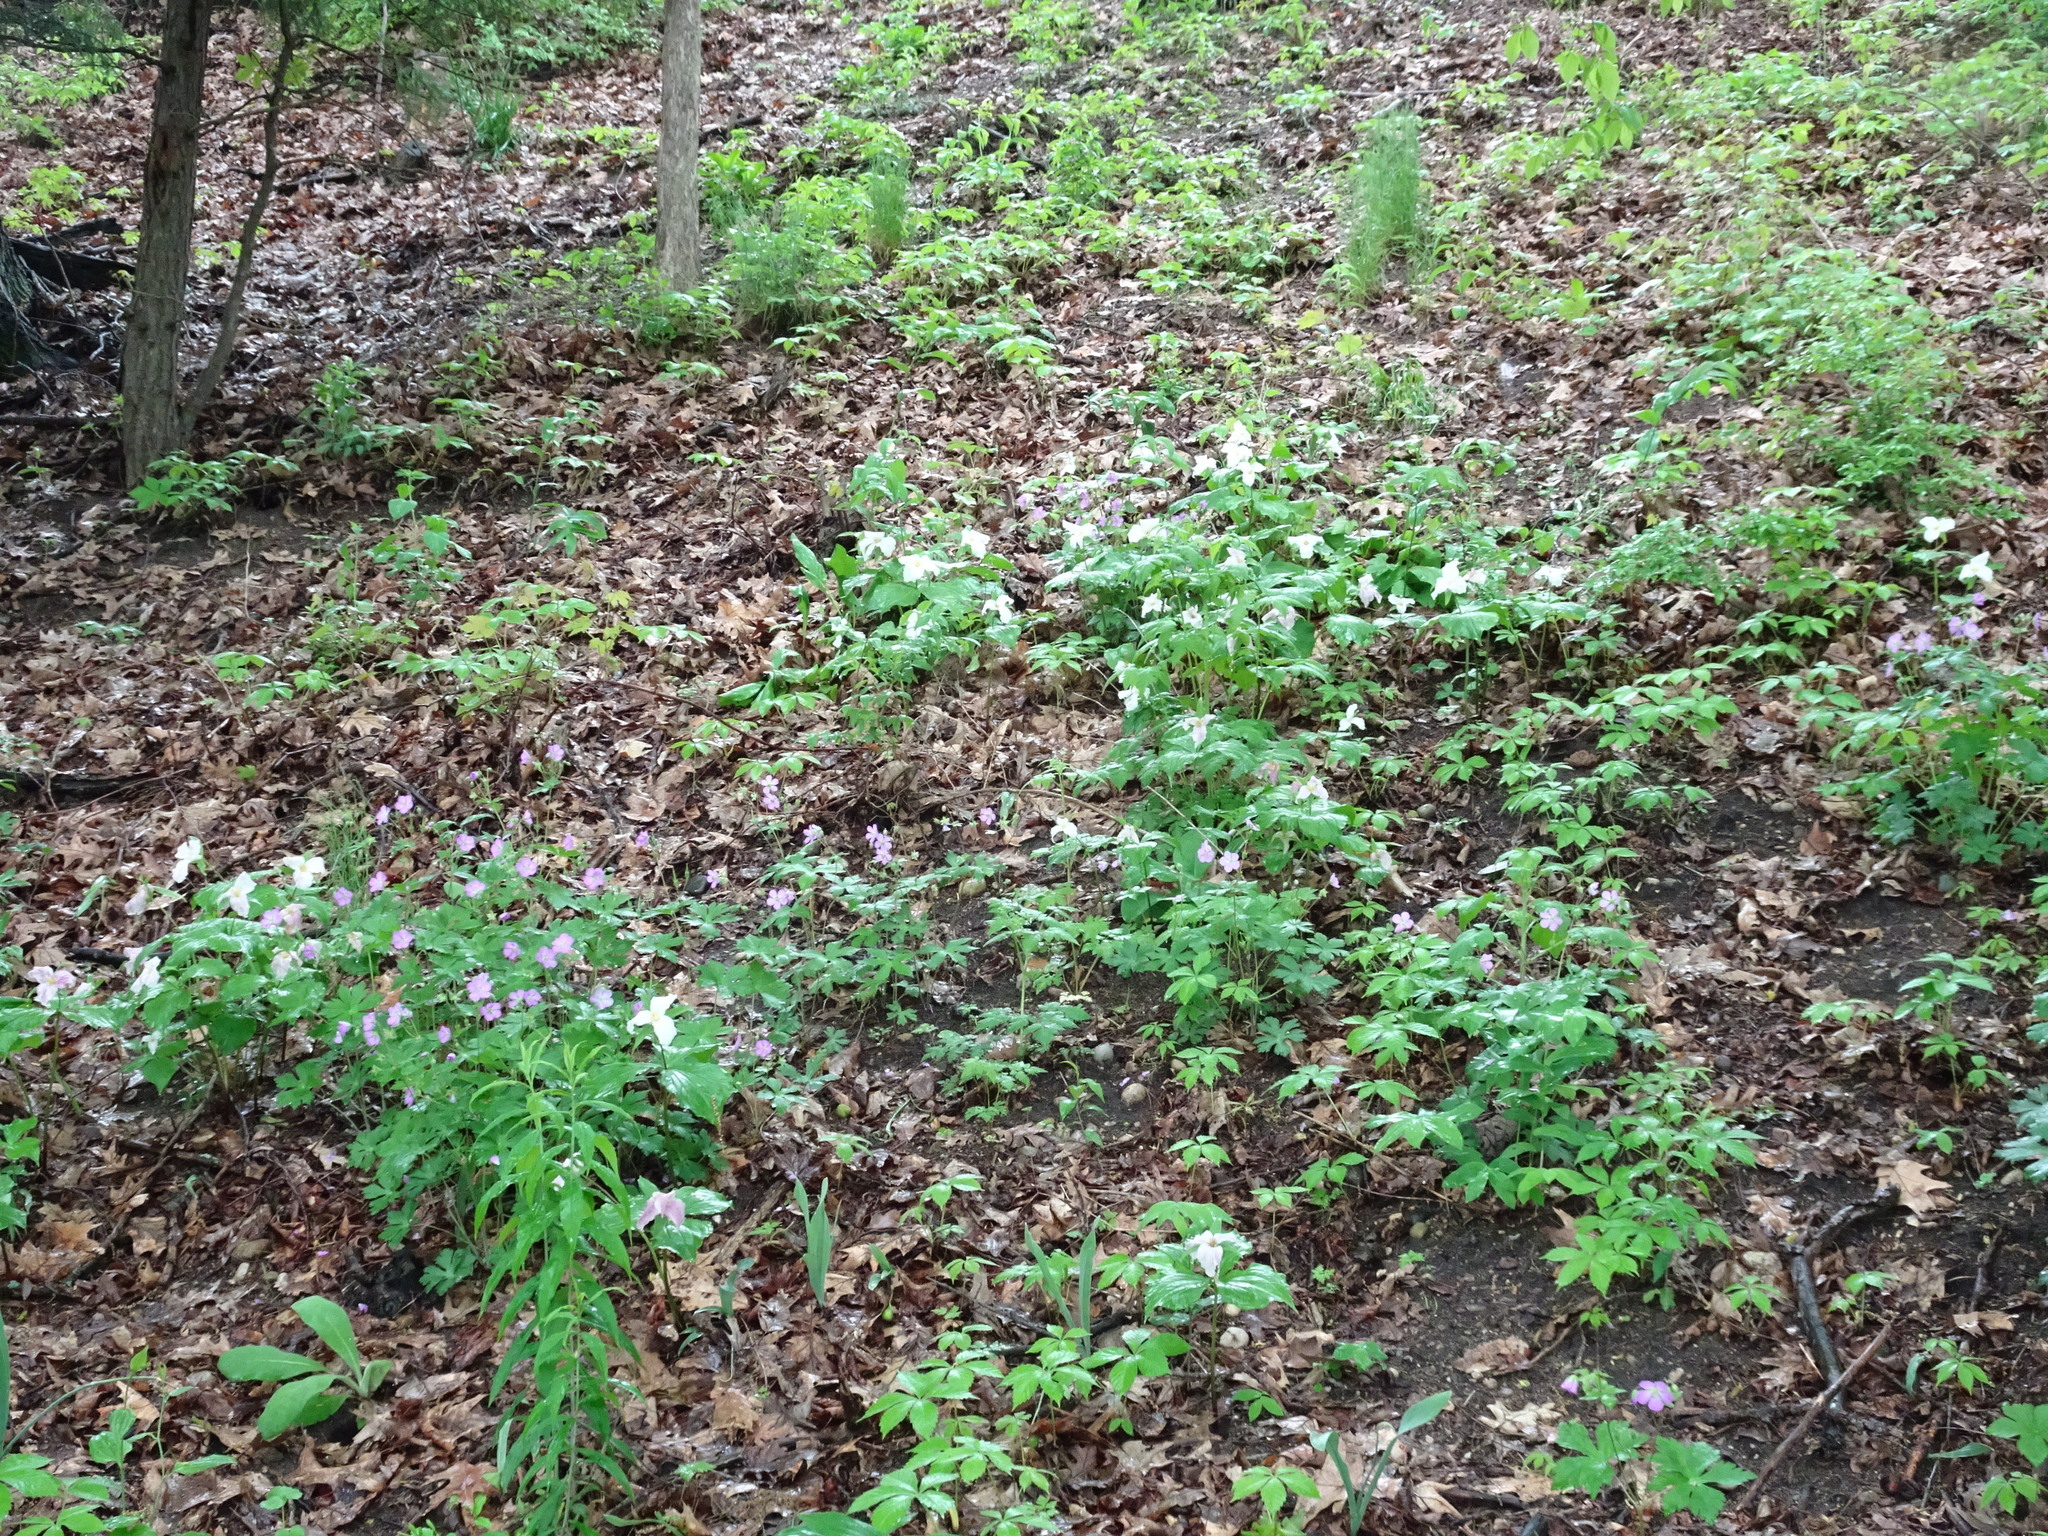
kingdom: Plantae
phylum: Tracheophyta
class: Liliopsida
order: Liliales
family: Melanthiaceae
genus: Trillium
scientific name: Trillium grandiflorum
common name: Great white trillium
